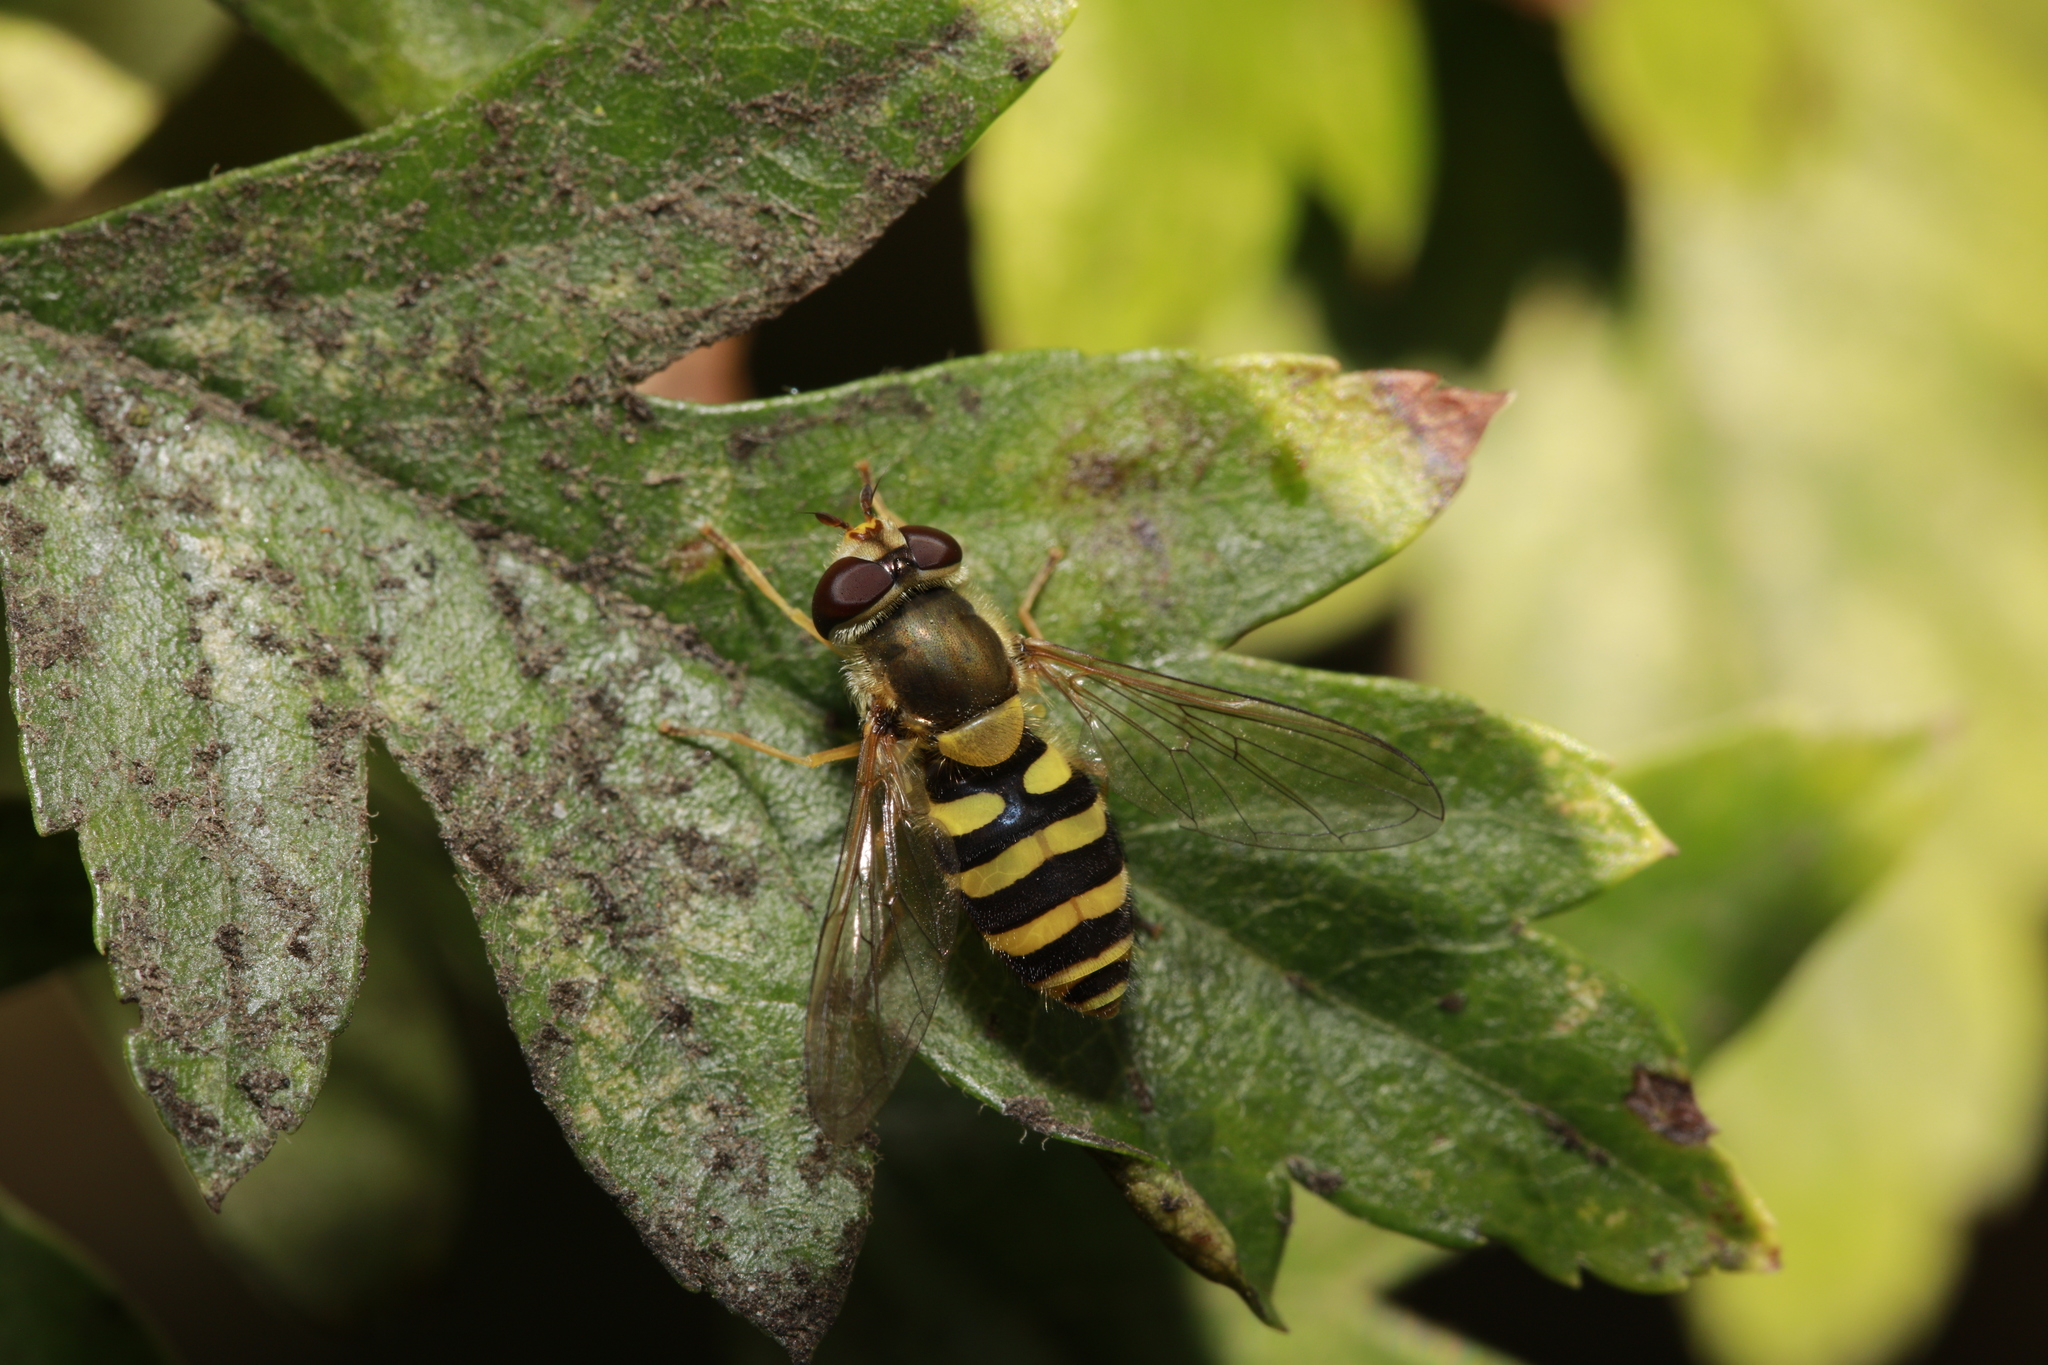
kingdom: Animalia
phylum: Arthropoda
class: Insecta
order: Diptera
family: Syrphidae
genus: Syrphus
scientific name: Syrphus
